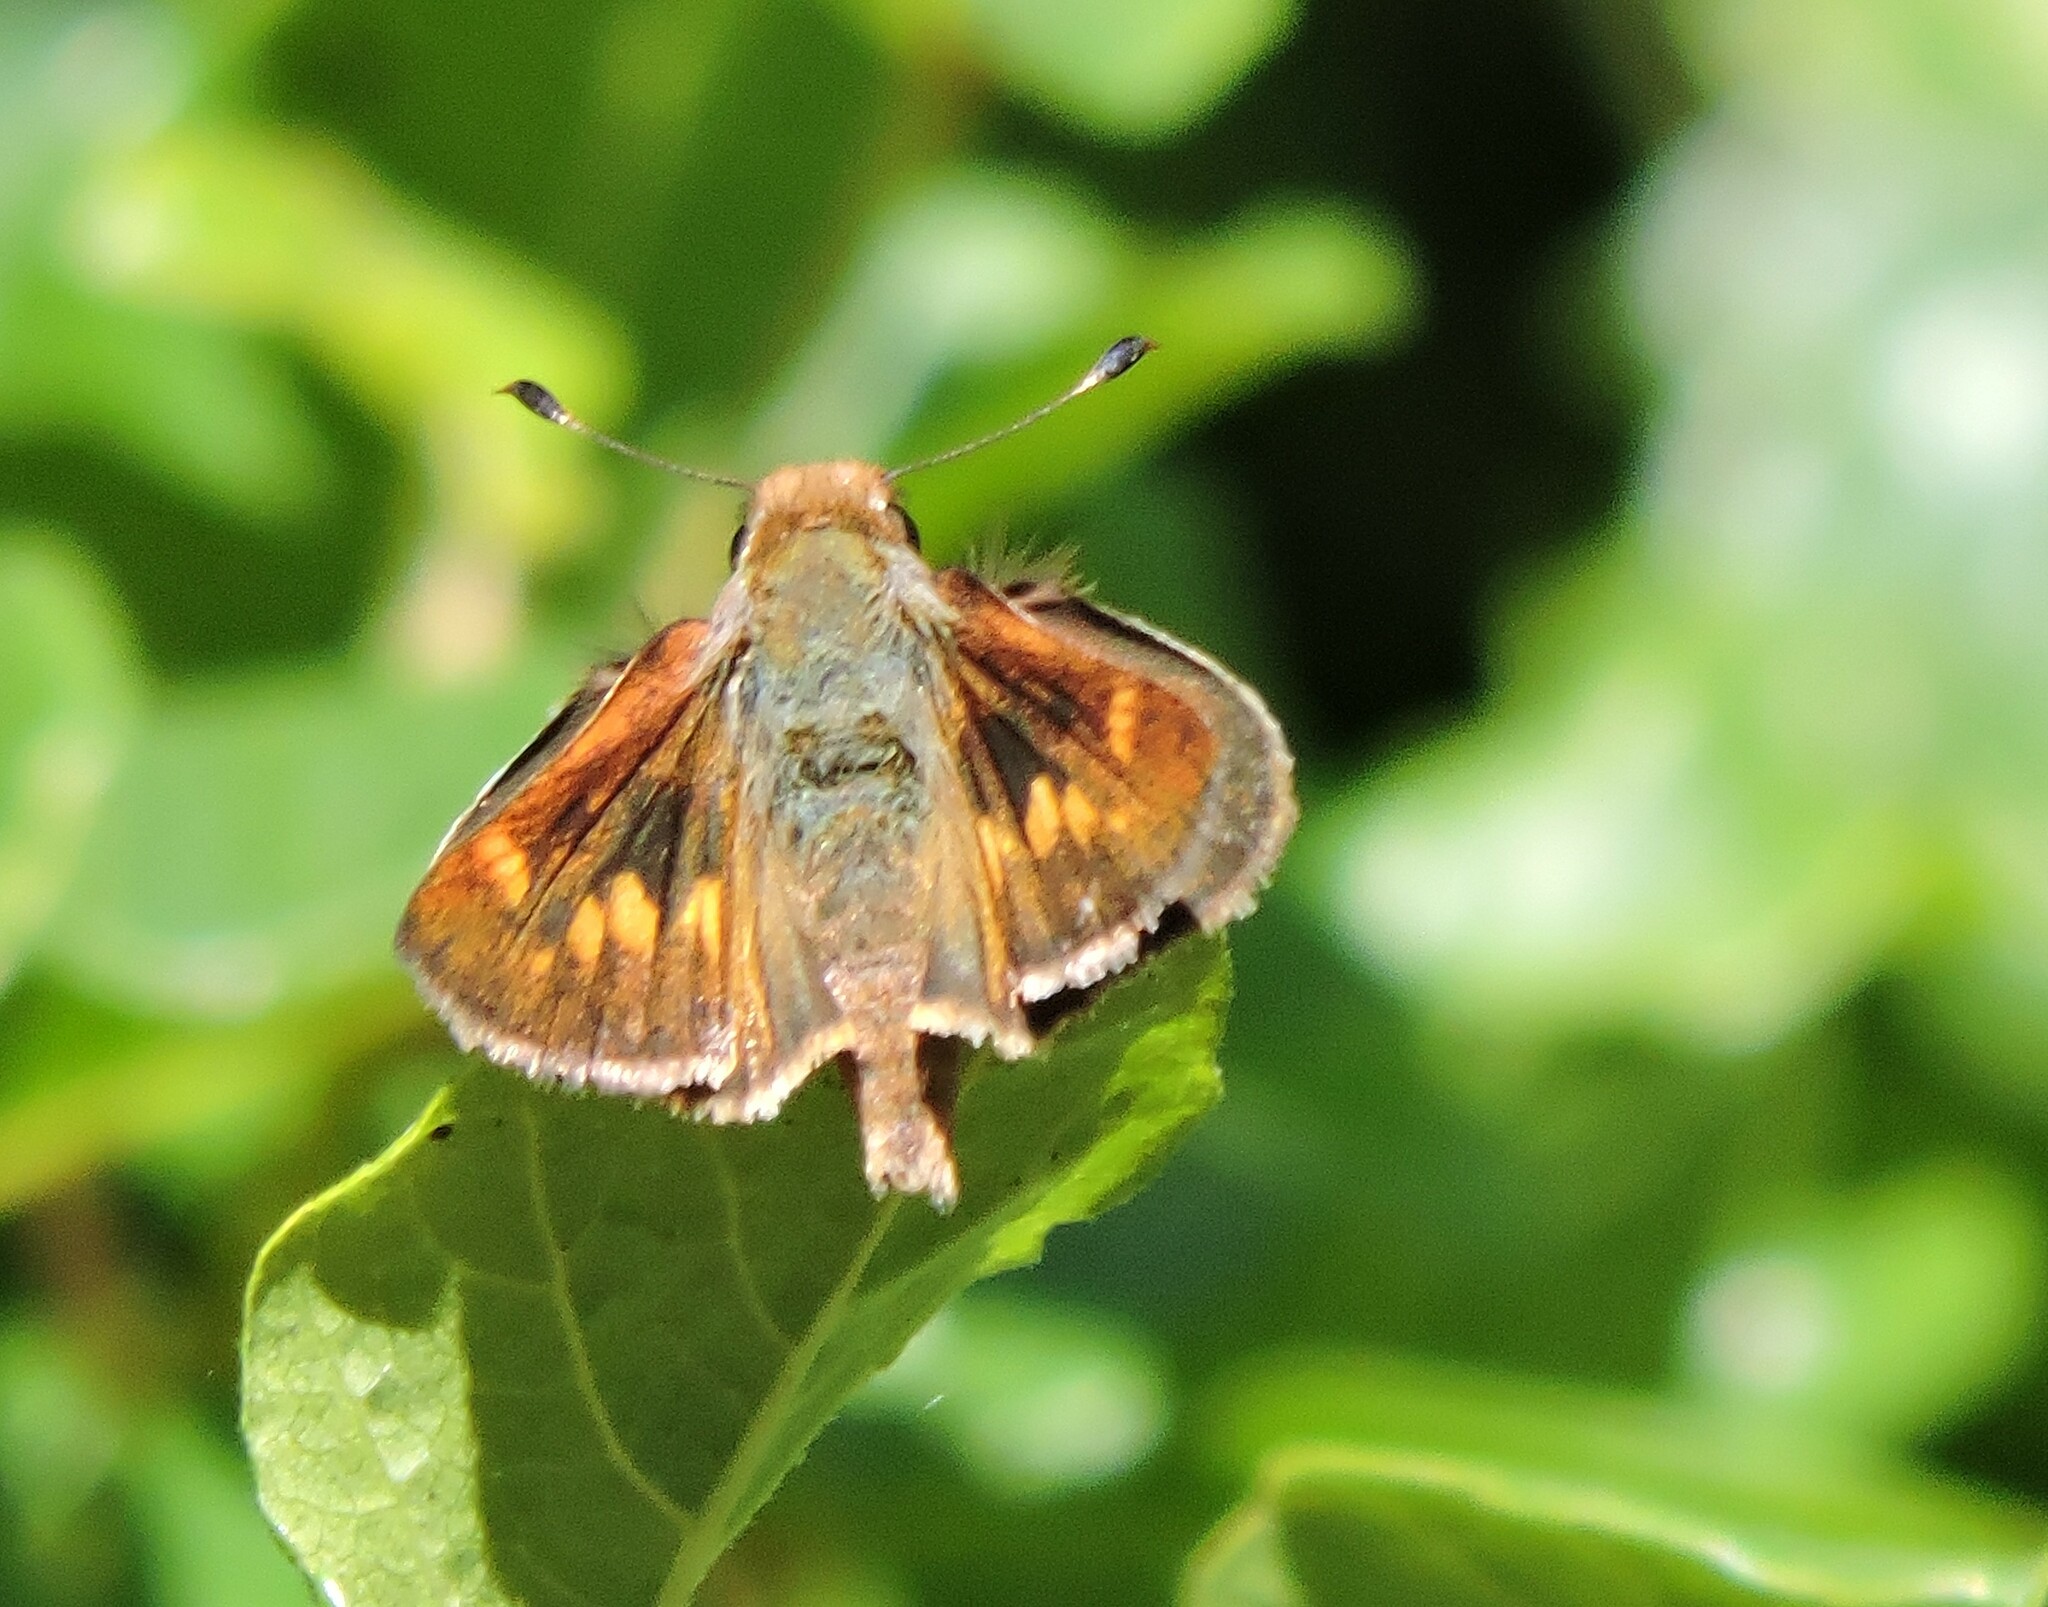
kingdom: Animalia
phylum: Arthropoda
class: Insecta
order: Lepidoptera
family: Hesperiidae
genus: Lon
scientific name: Lon melane
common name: Umber skipper
